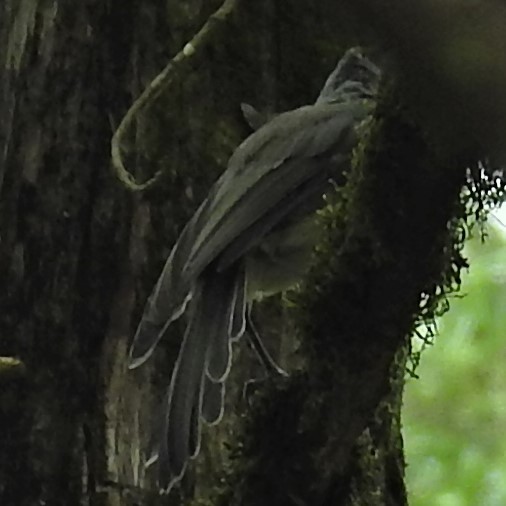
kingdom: Animalia
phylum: Chordata
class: Aves
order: Passeriformes
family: Paridae
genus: Baeolophus
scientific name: Baeolophus bicolor
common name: Tufted titmouse
